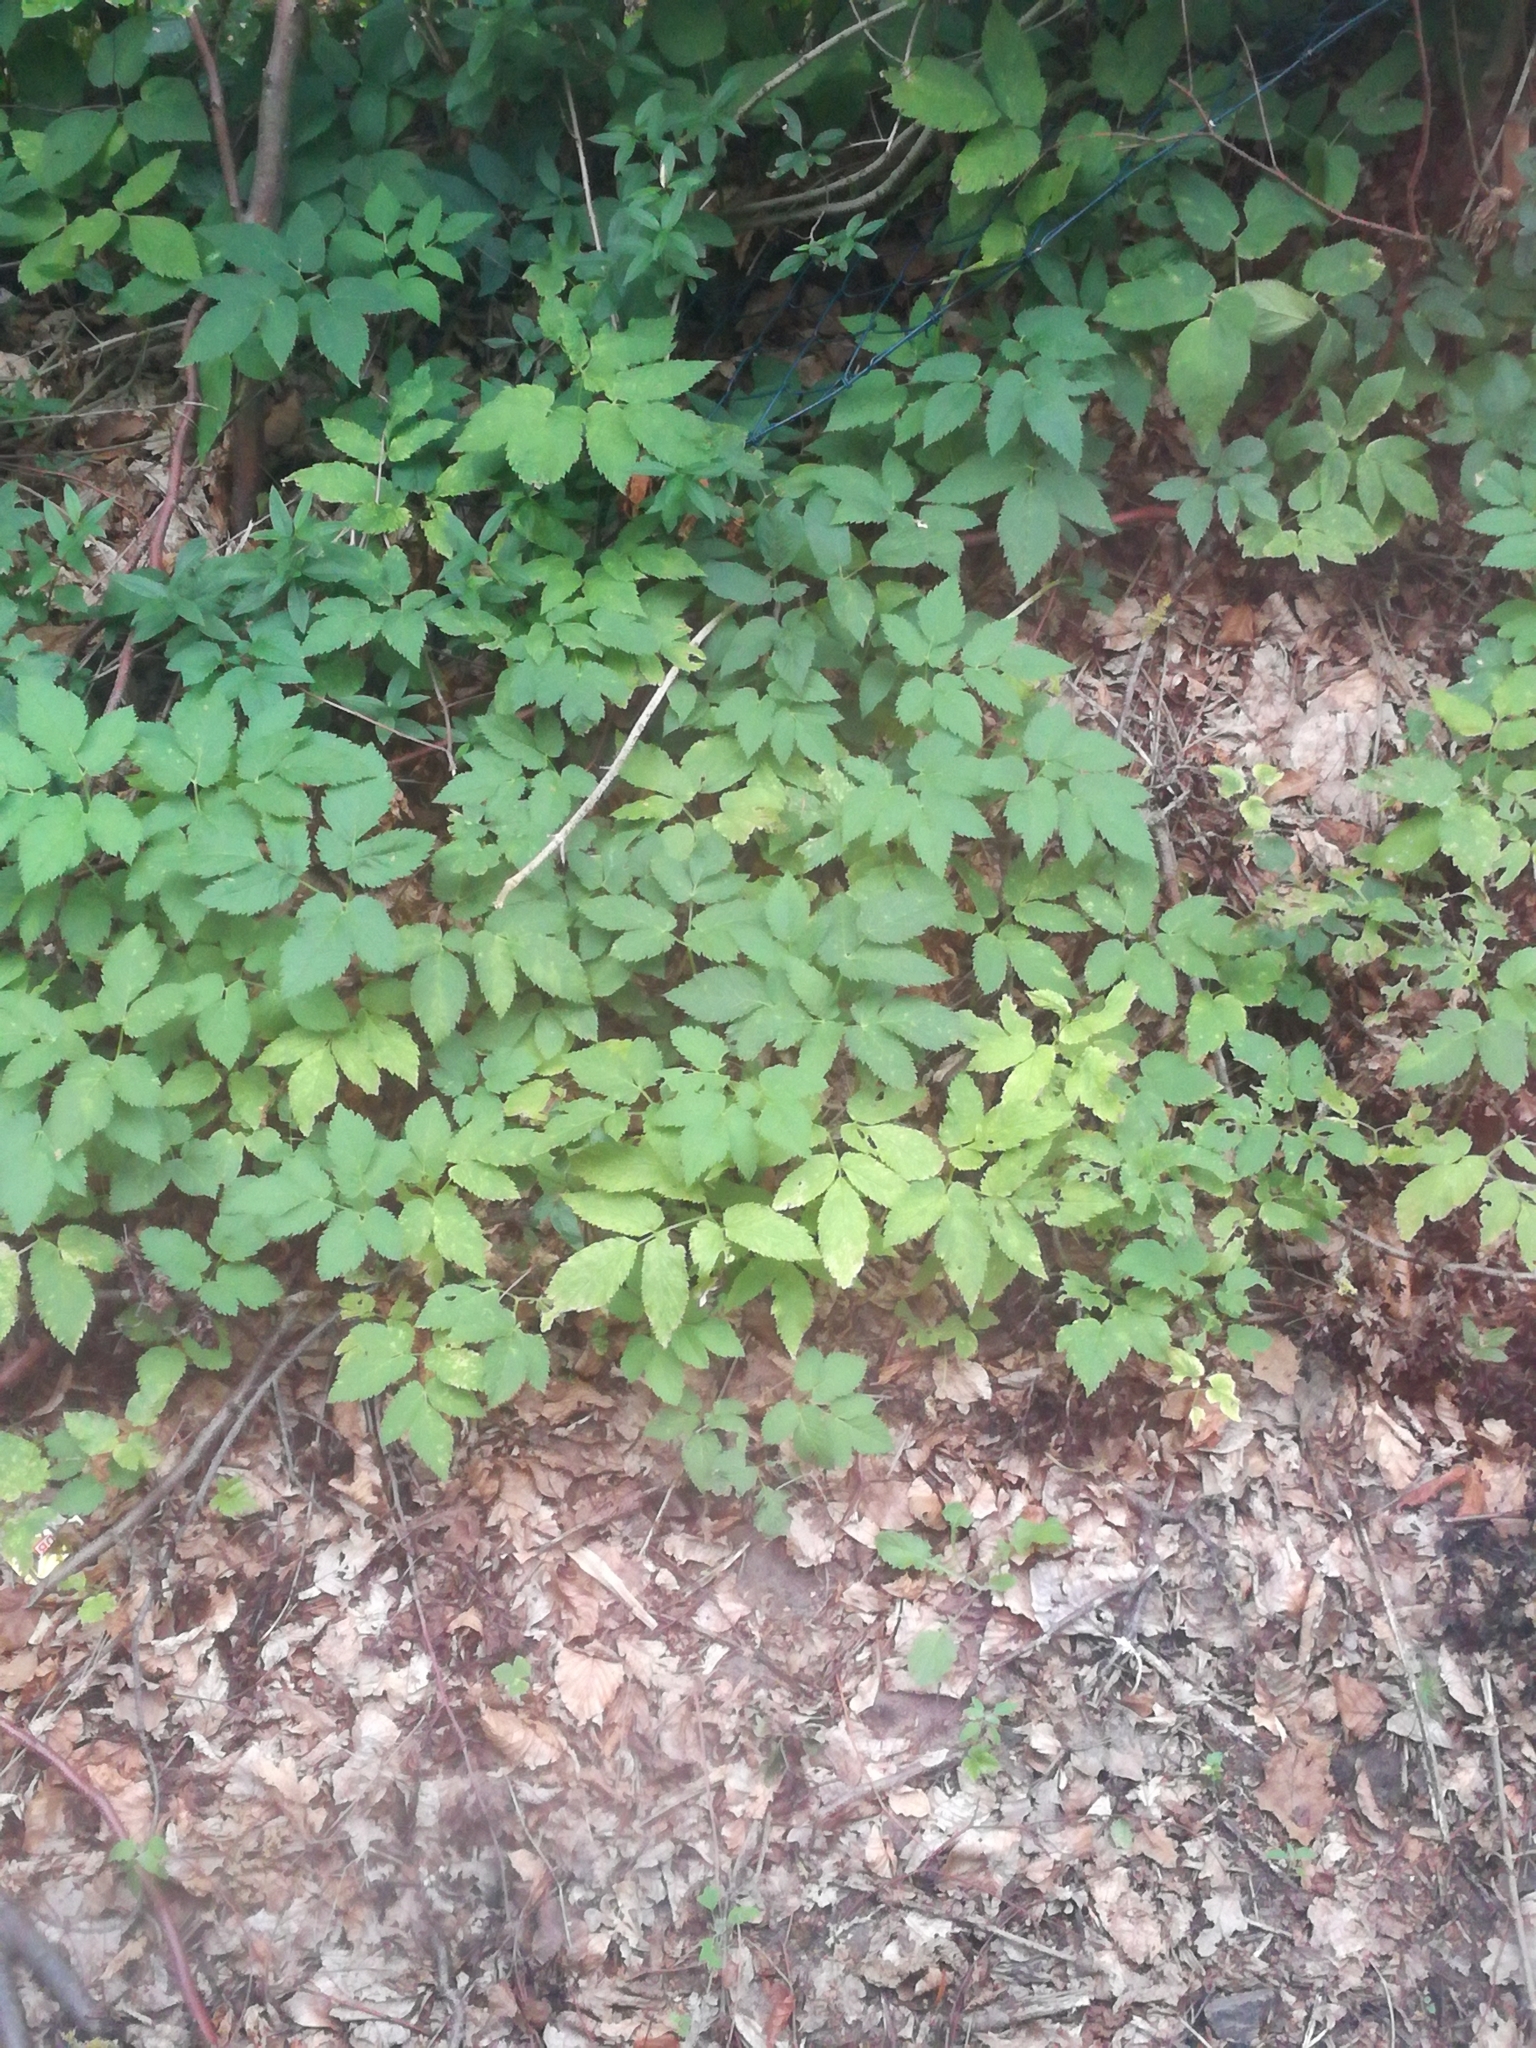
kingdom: Plantae
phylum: Tracheophyta
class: Magnoliopsida
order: Apiales
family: Apiaceae
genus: Aegopodium
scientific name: Aegopodium podagraria
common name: Ground-elder
